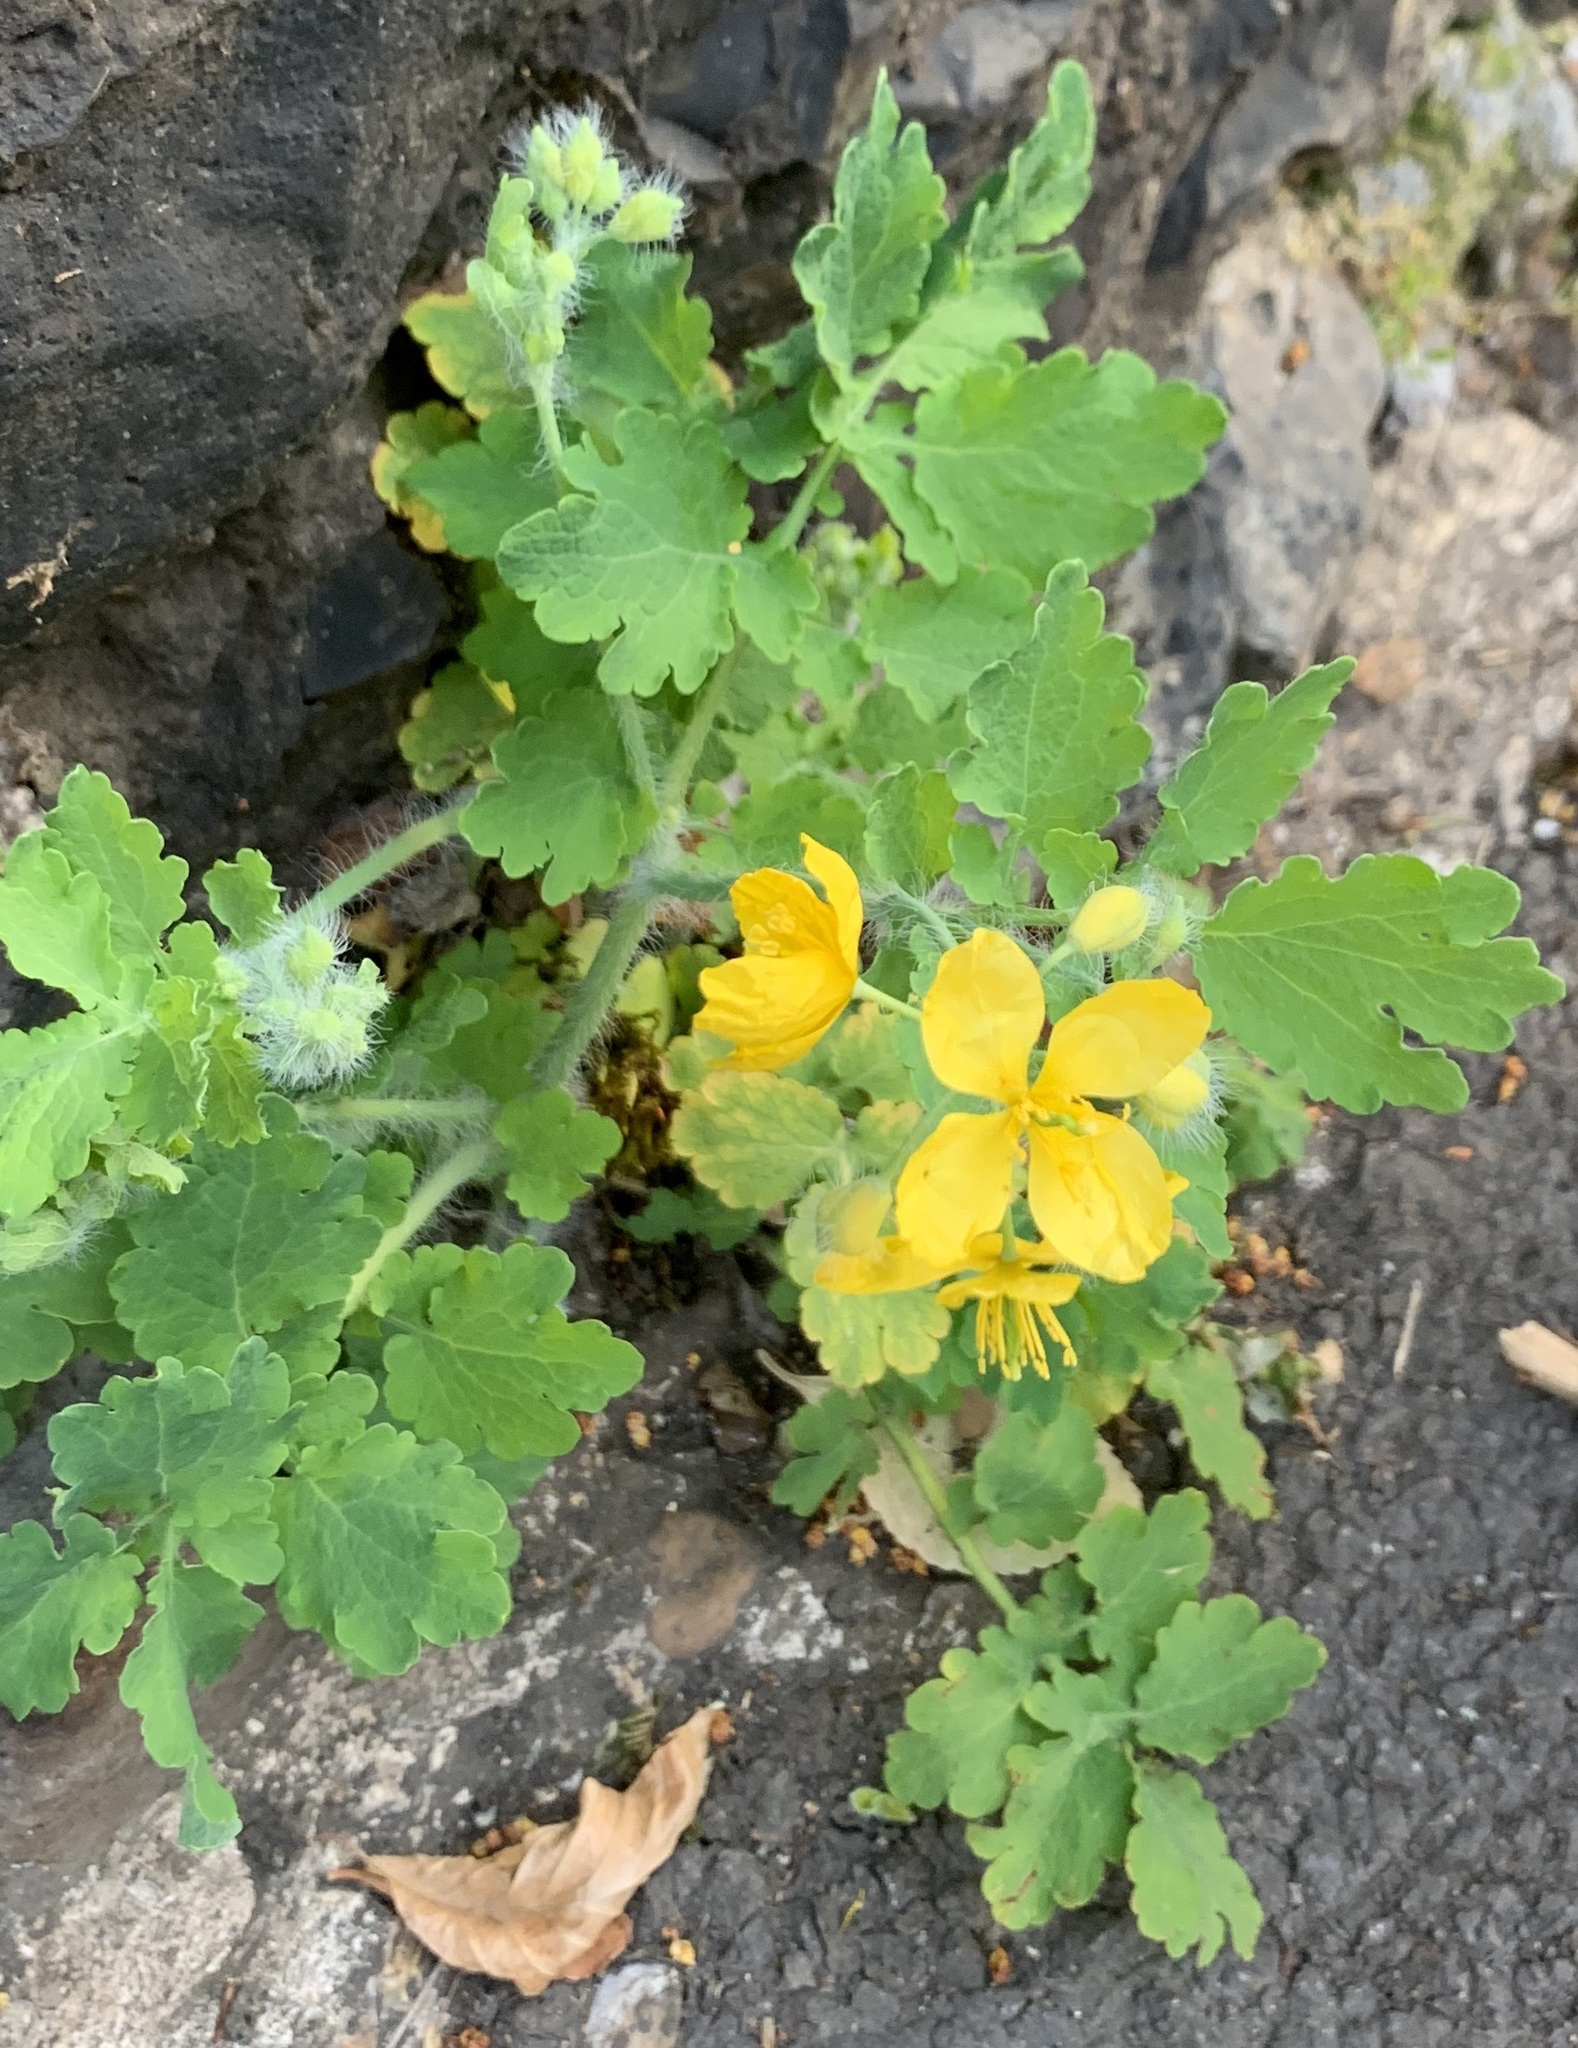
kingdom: Plantae
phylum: Tracheophyta
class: Magnoliopsida
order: Ranunculales
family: Papaveraceae
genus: Chelidonium
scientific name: Chelidonium majus
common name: Greater celandine
